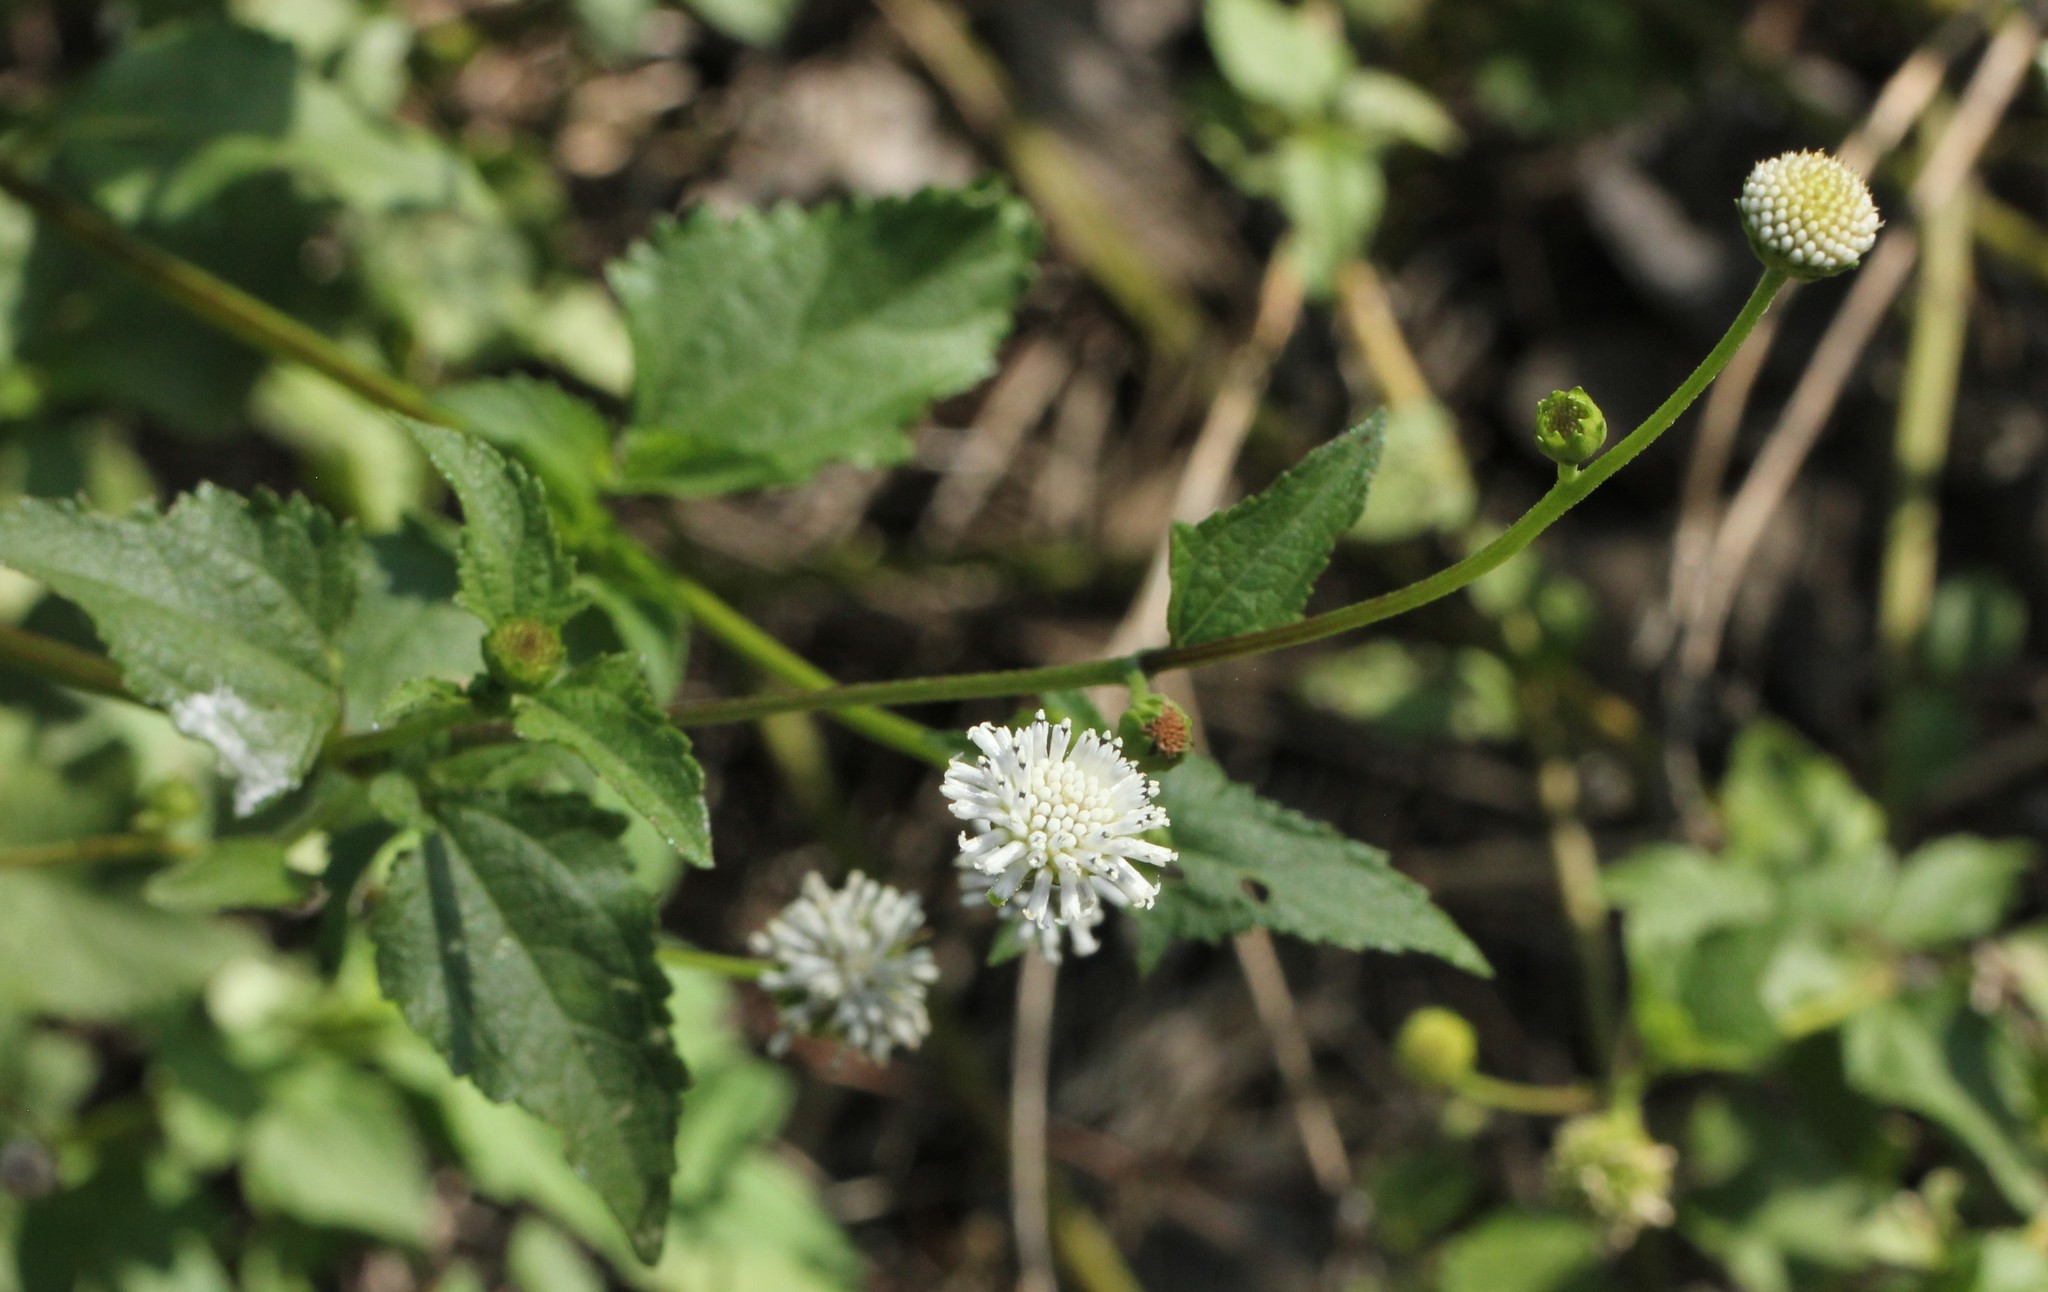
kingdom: Plantae
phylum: Tracheophyta
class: Magnoliopsida
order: Asterales
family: Asteraceae
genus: Melanthera
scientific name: Melanthera nivea
